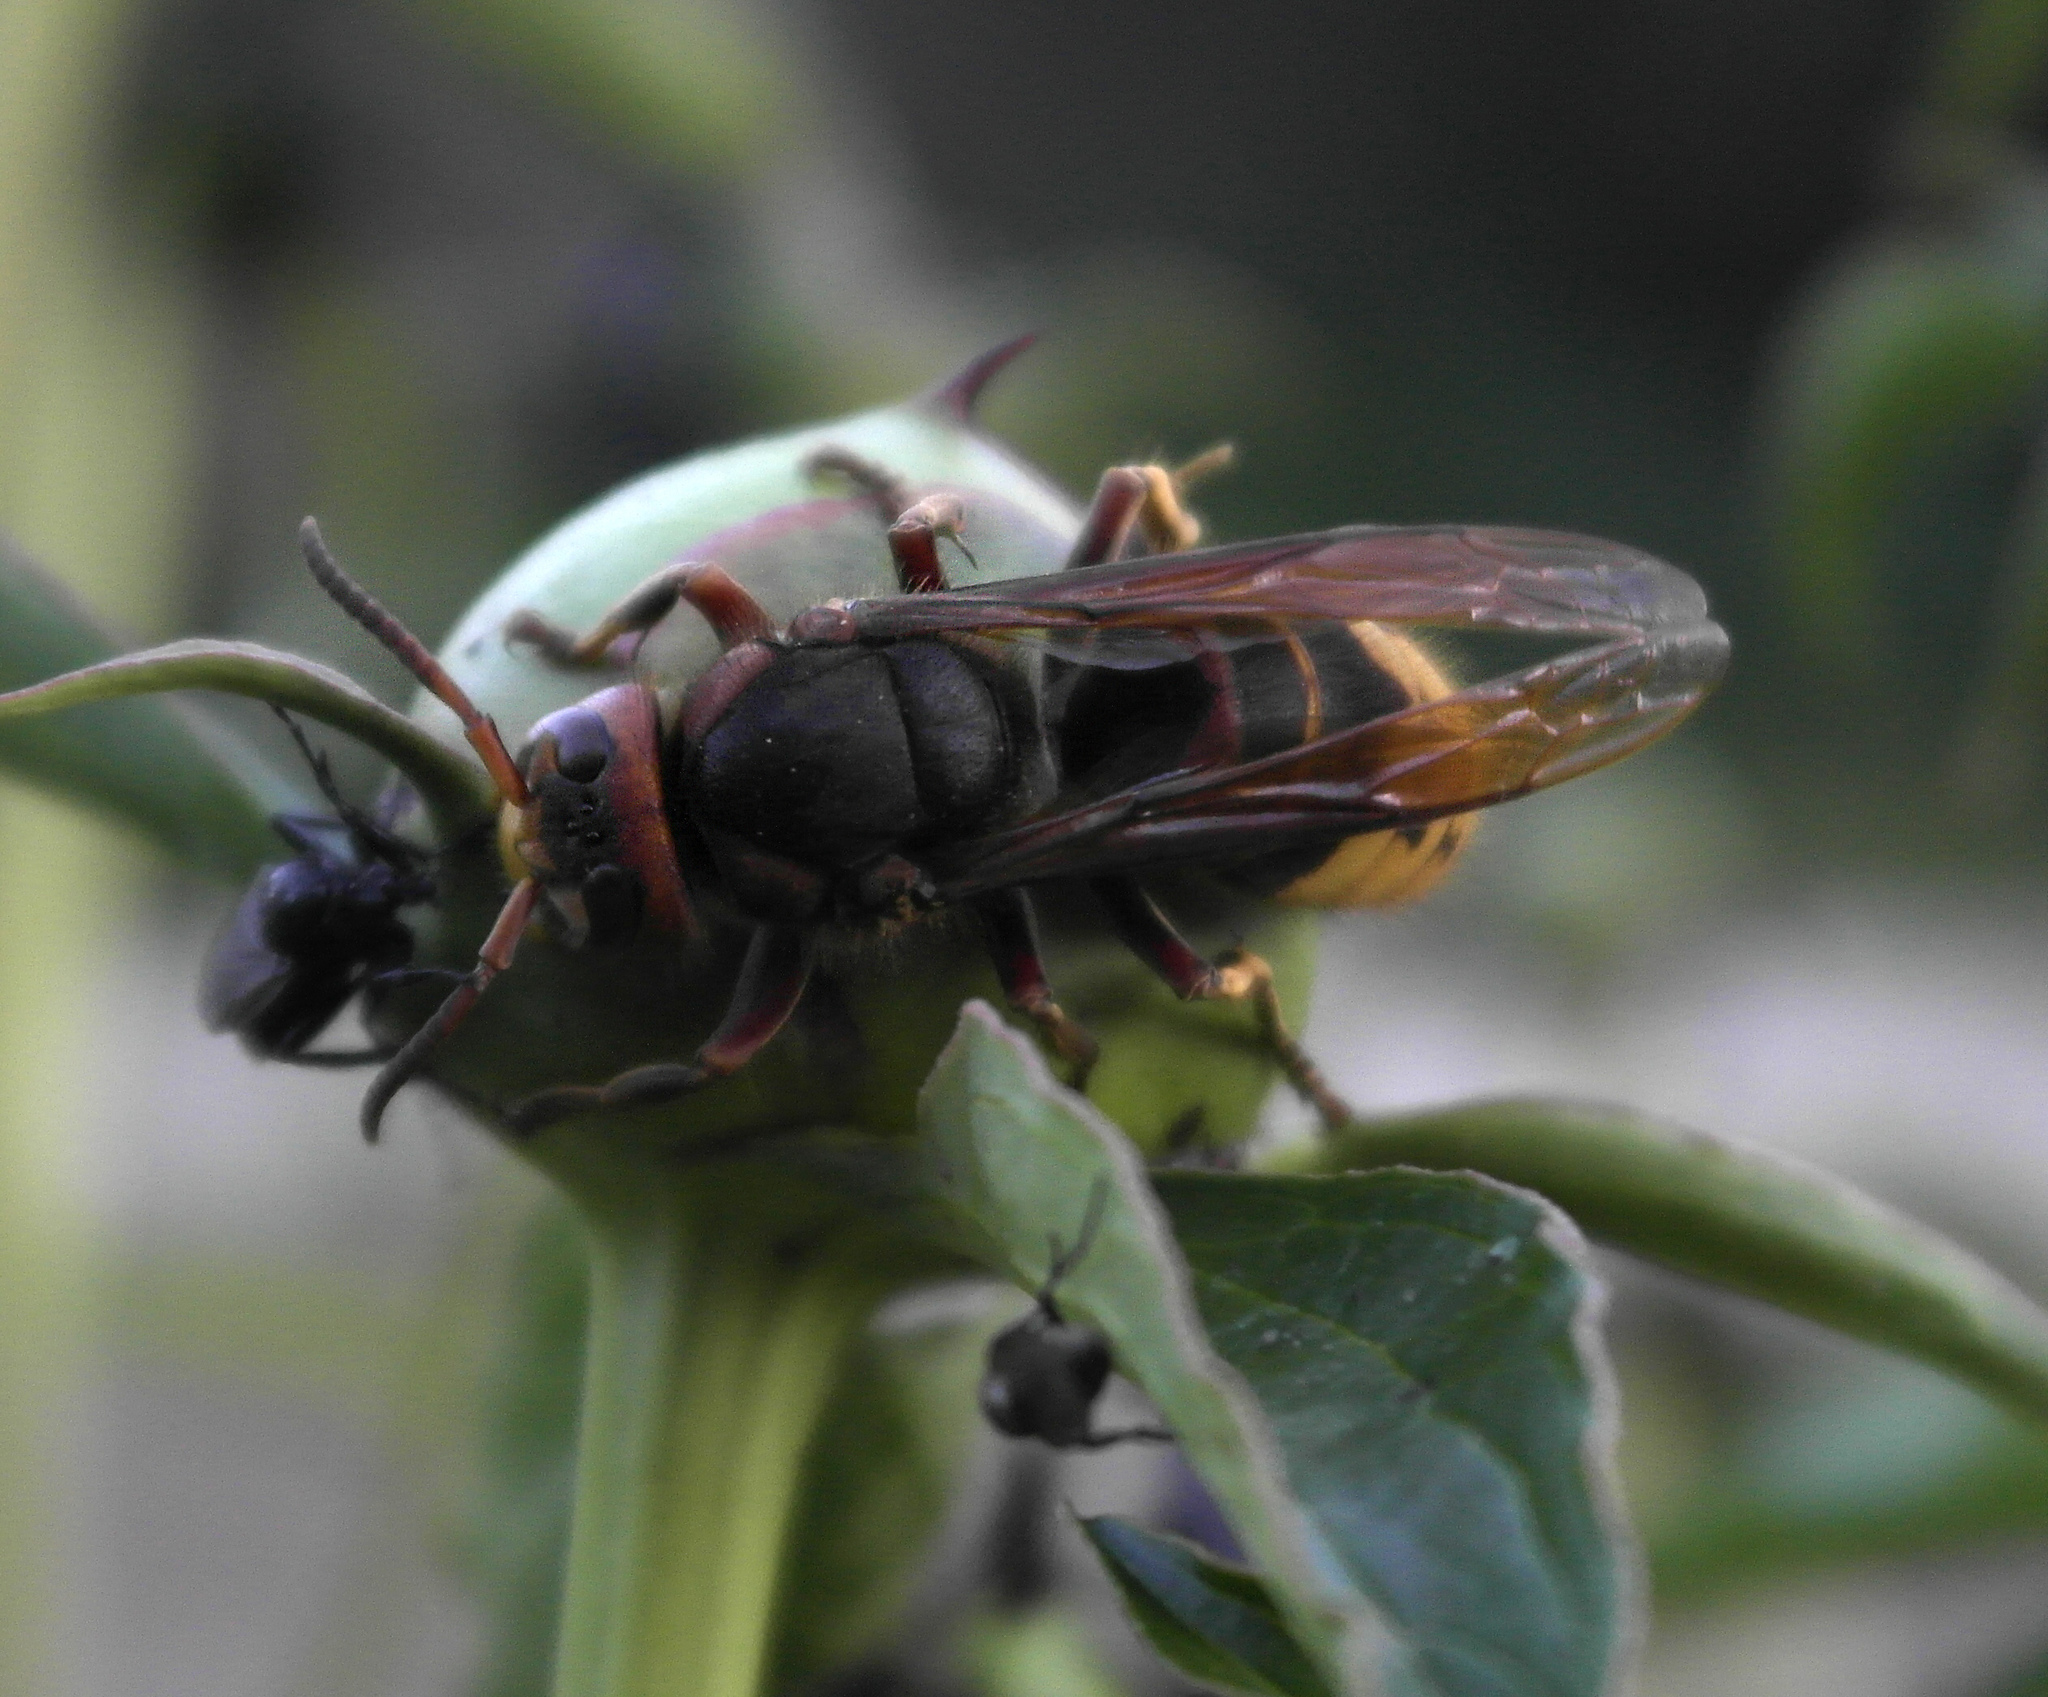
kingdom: Animalia
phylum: Arthropoda
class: Insecta
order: Hymenoptera
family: Vespidae
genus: Vespa
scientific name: Vespa crabro
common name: Hornet
